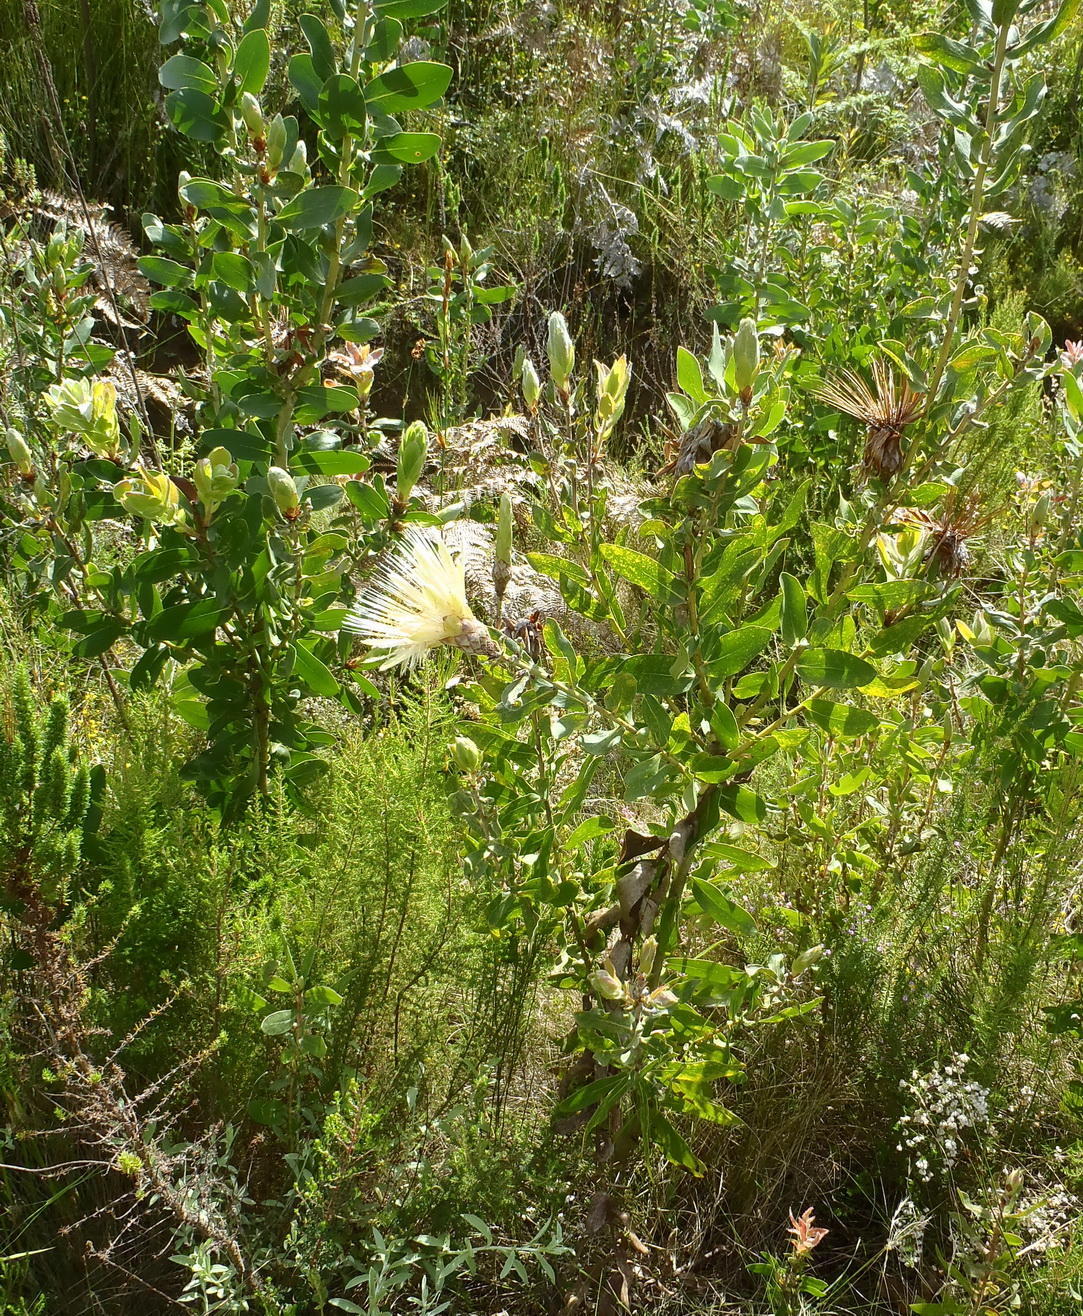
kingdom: Plantae
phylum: Tracheophyta
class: Magnoliopsida
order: Proteales
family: Proteaceae
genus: Protea
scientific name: Protea aurea
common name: Shuttlecock sugarbush
